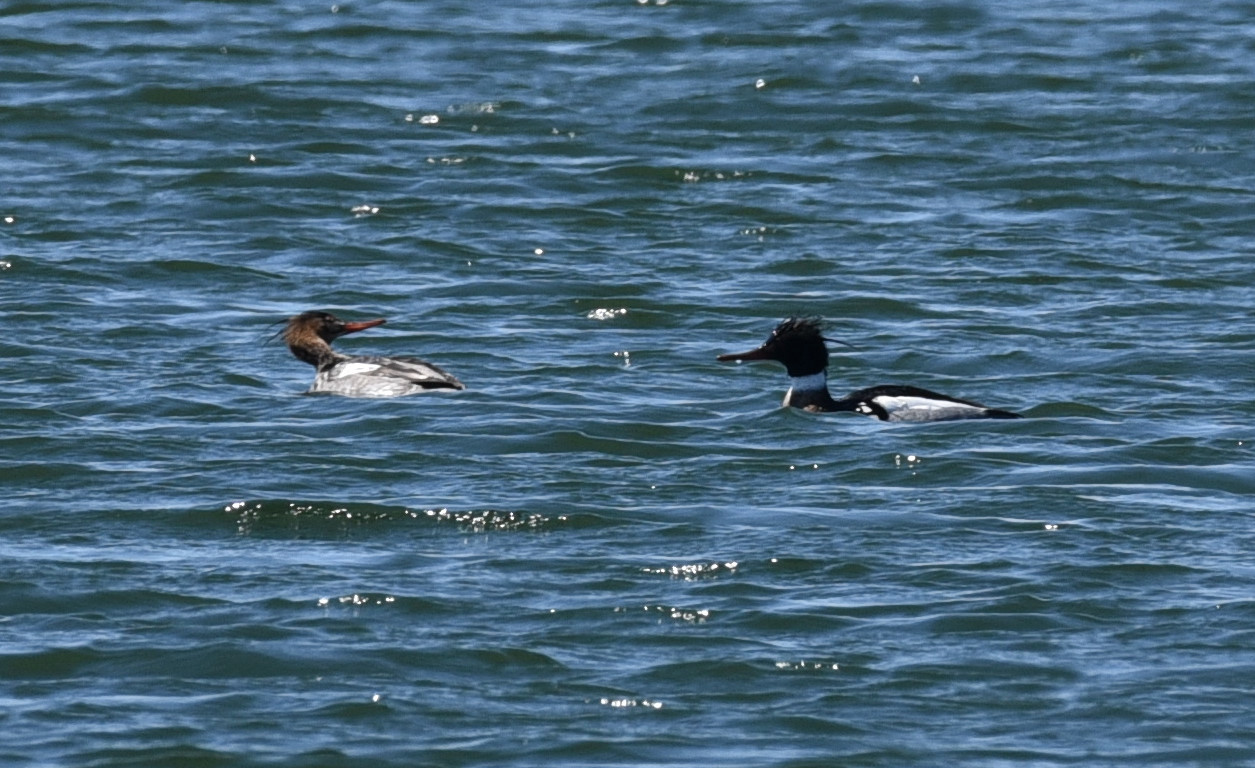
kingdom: Animalia
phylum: Chordata
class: Aves
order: Anseriformes
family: Anatidae
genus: Mergus
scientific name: Mergus serrator
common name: Red-breasted merganser
